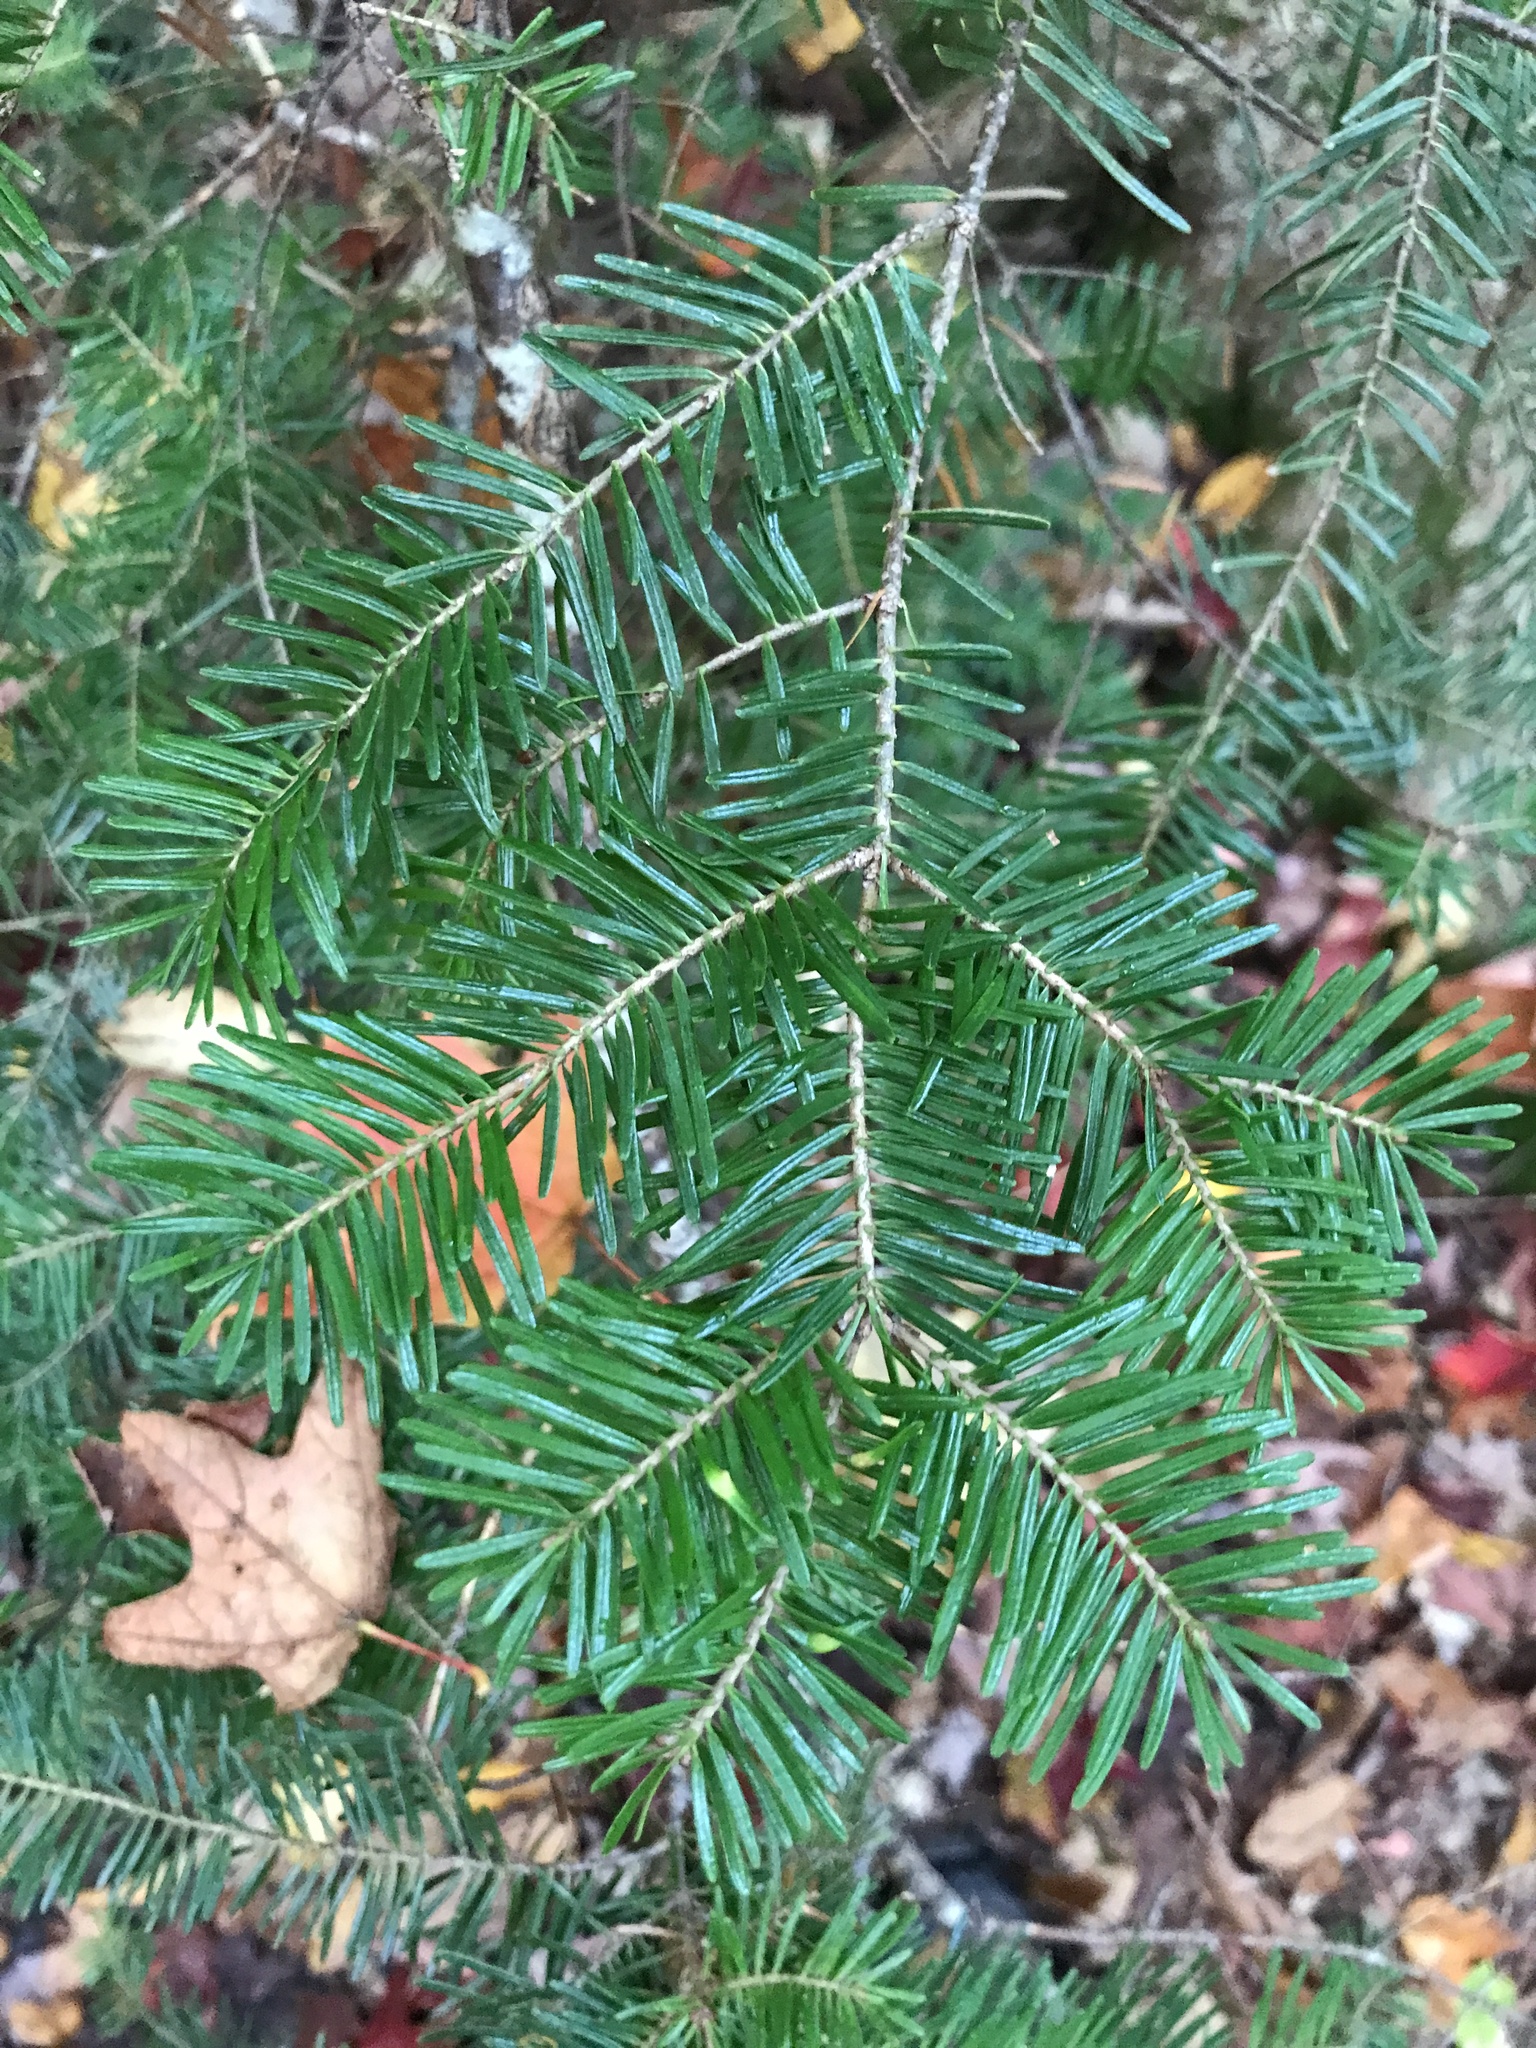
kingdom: Plantae
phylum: Tracheophyta
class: Pinopsida
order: Pinales
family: Pinaceae
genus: Abies
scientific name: Abies balsamea
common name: Balsam fir
